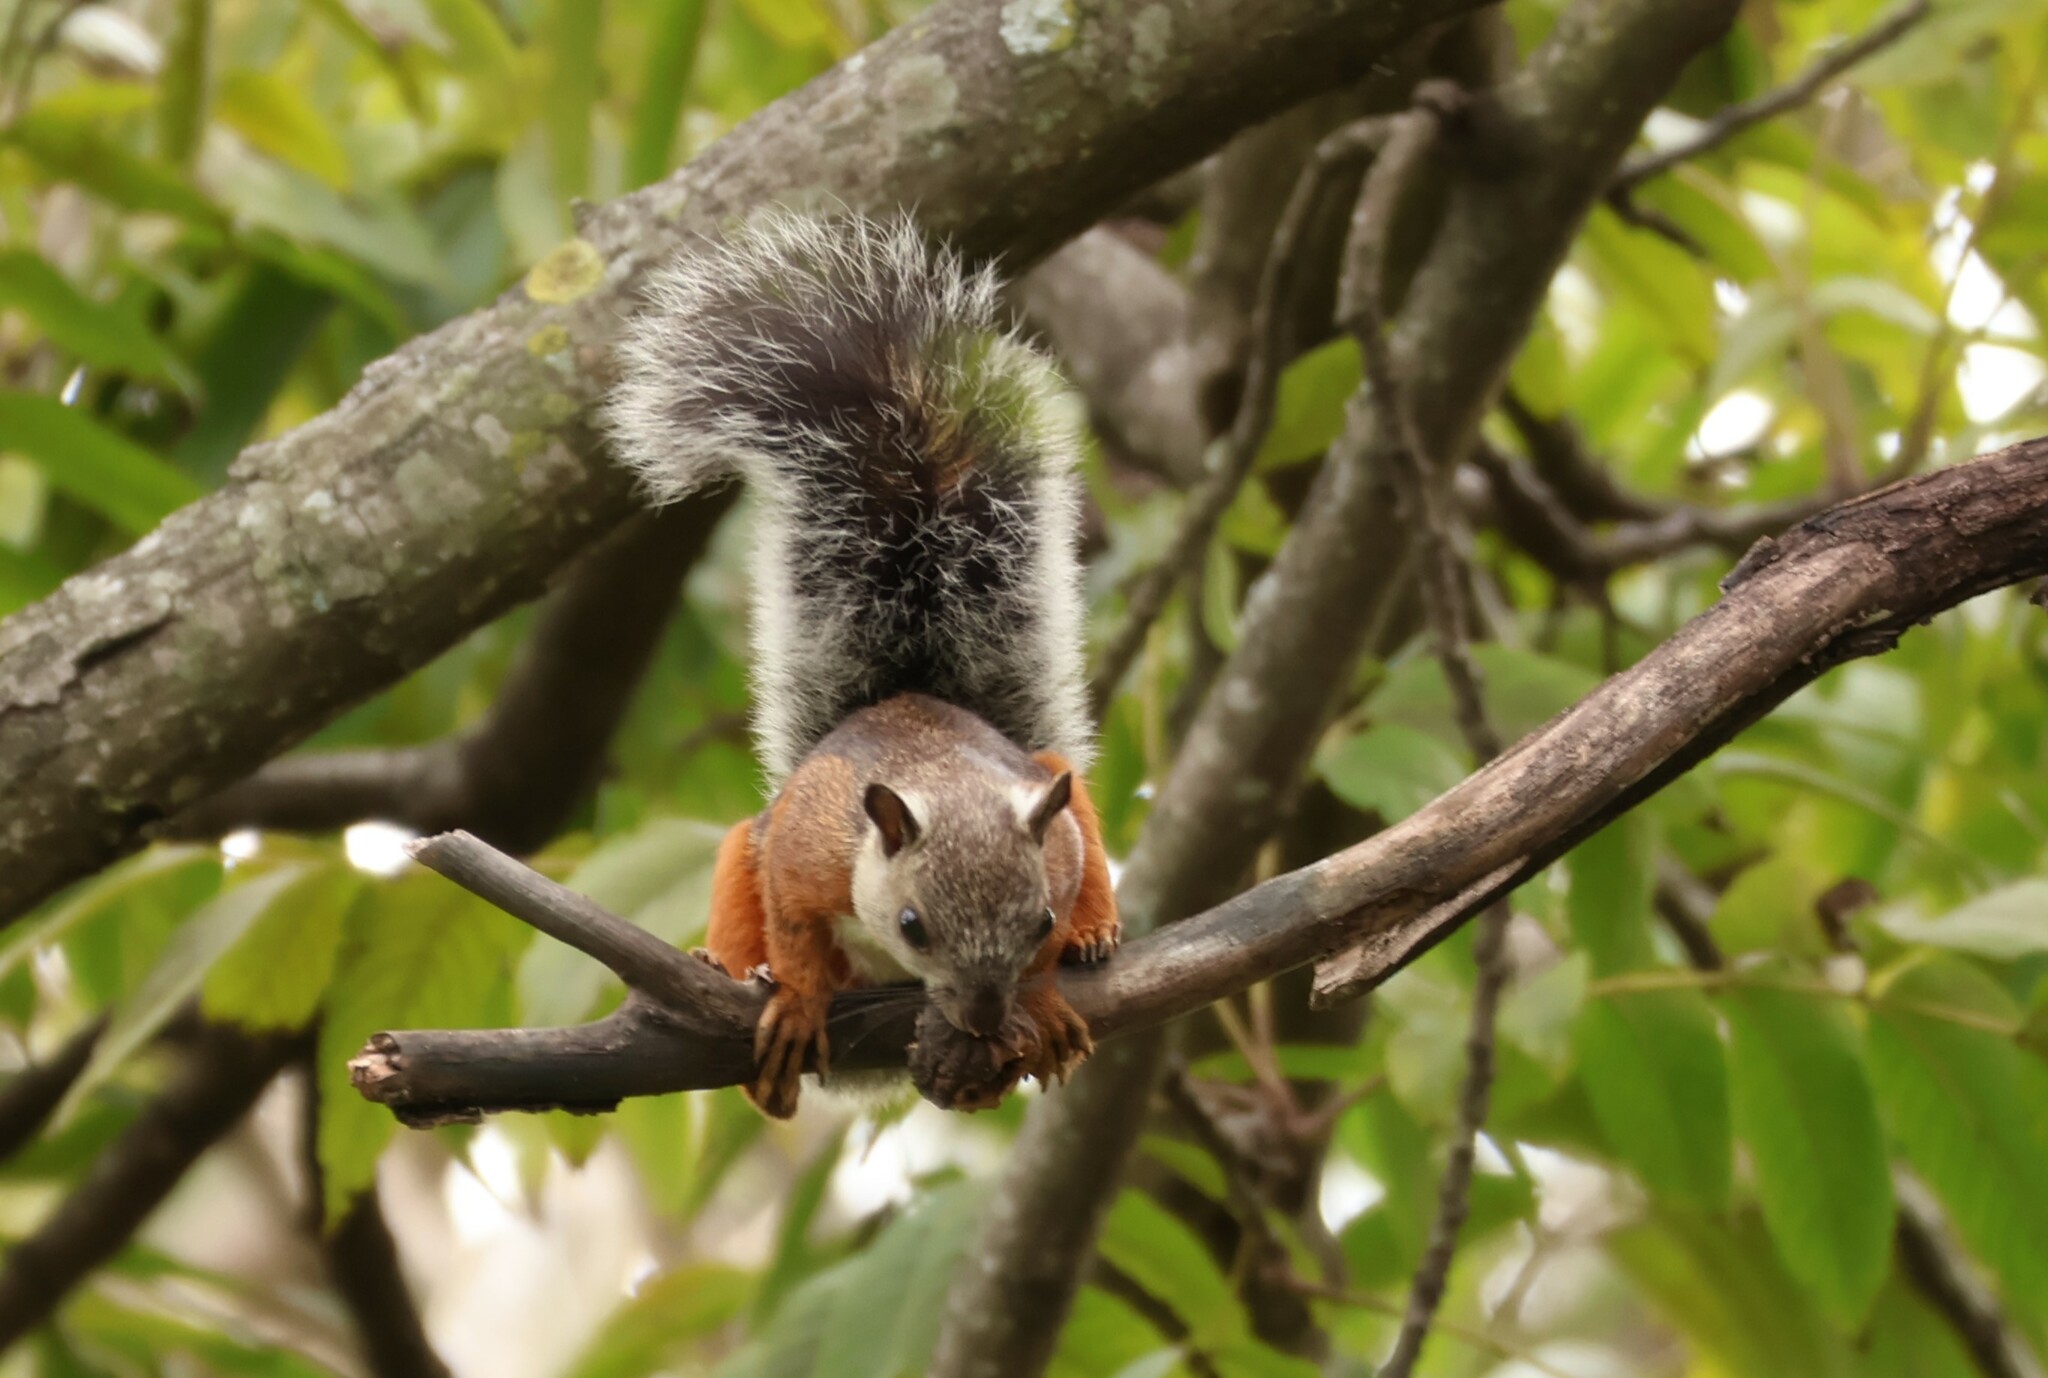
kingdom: Animalia
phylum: Chordata
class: Mammalia
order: Rodentia
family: Sciuridae
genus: Sciurus
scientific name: Sciurus variegatoides
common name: Variegated squirrel
